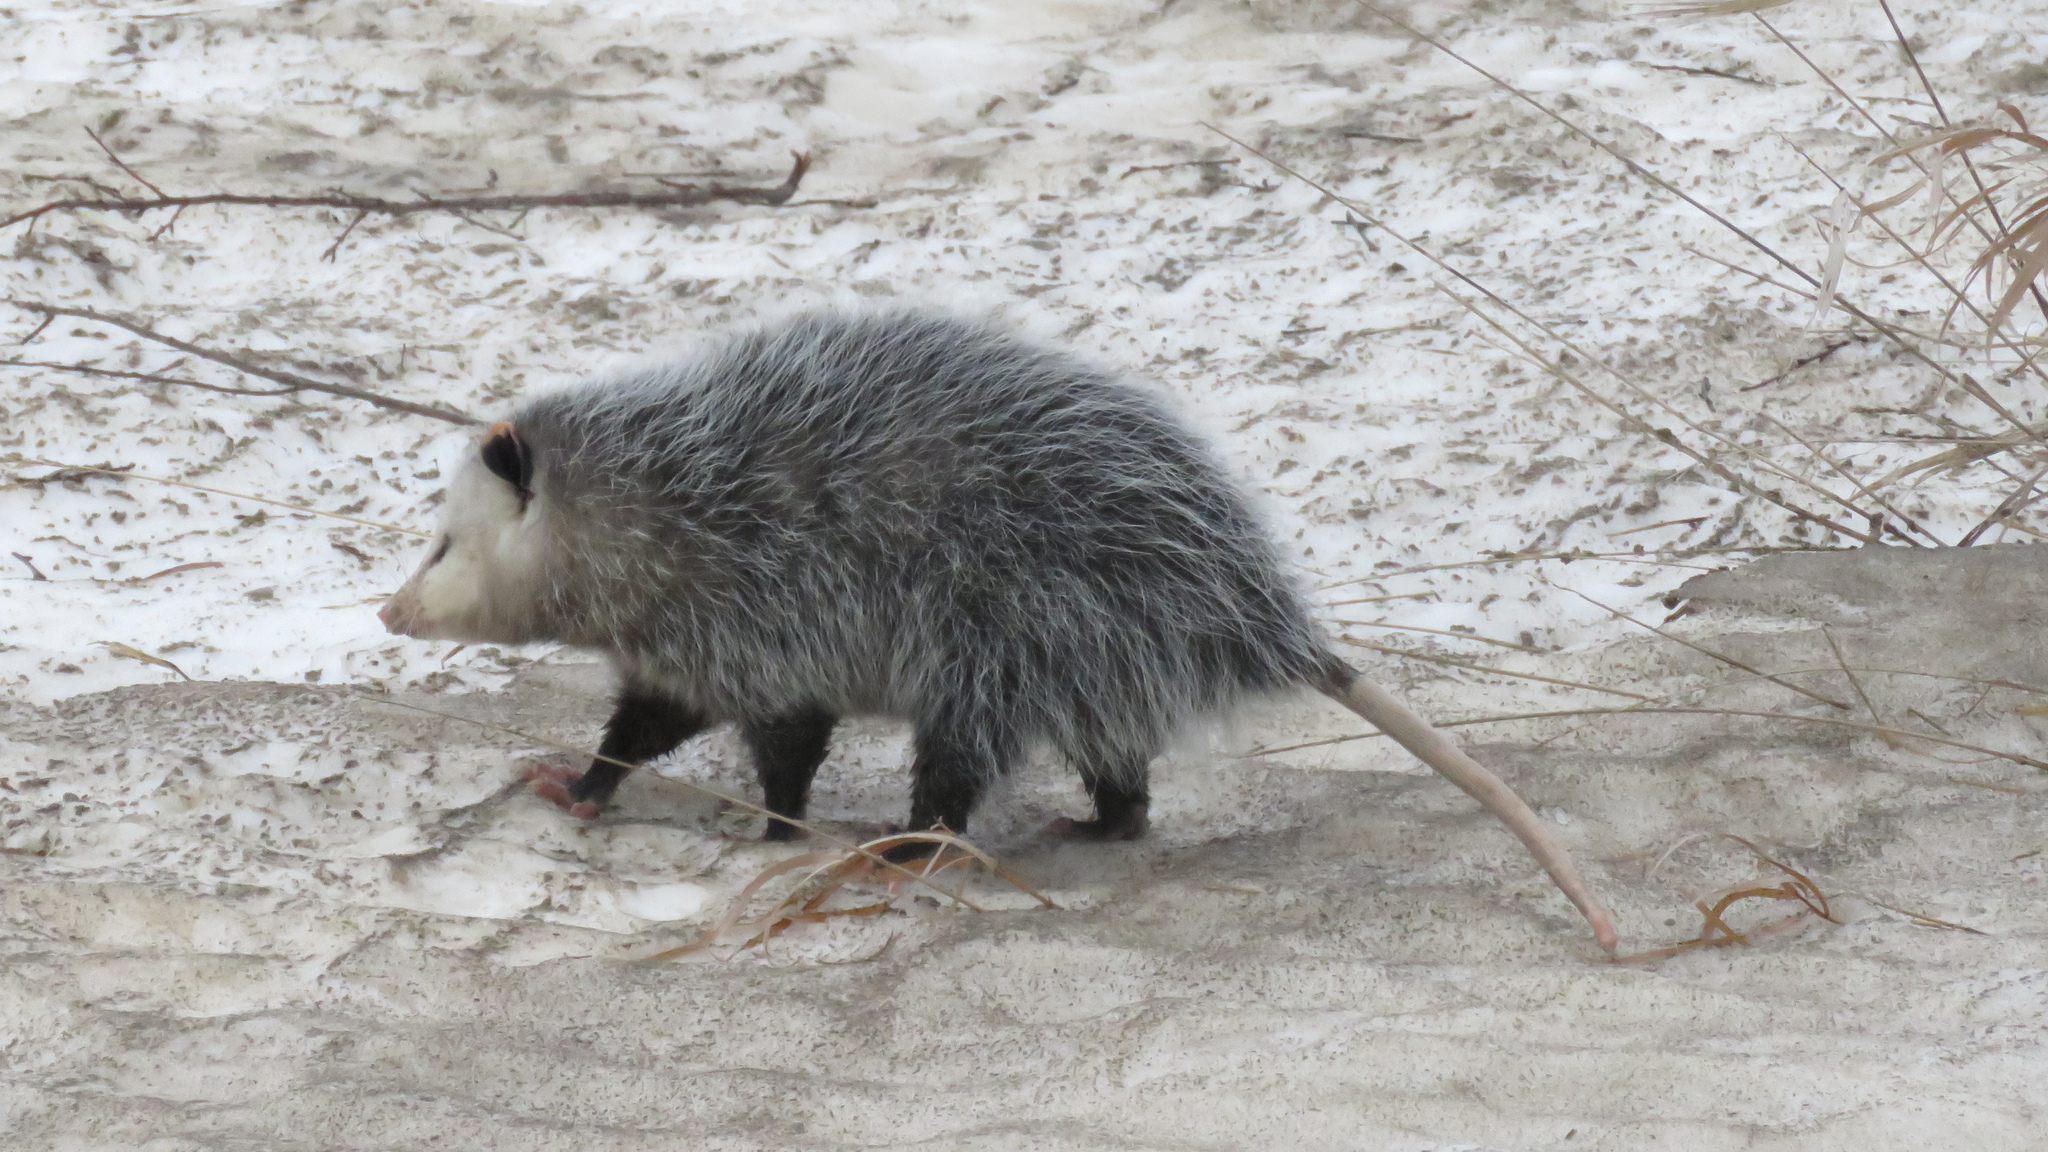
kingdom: Animalia
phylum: Chordata
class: Mammalia
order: Didelphimorphia
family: Didelphidae
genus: Didelphis
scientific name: Didelphis virginiana
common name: Virginia opossum
